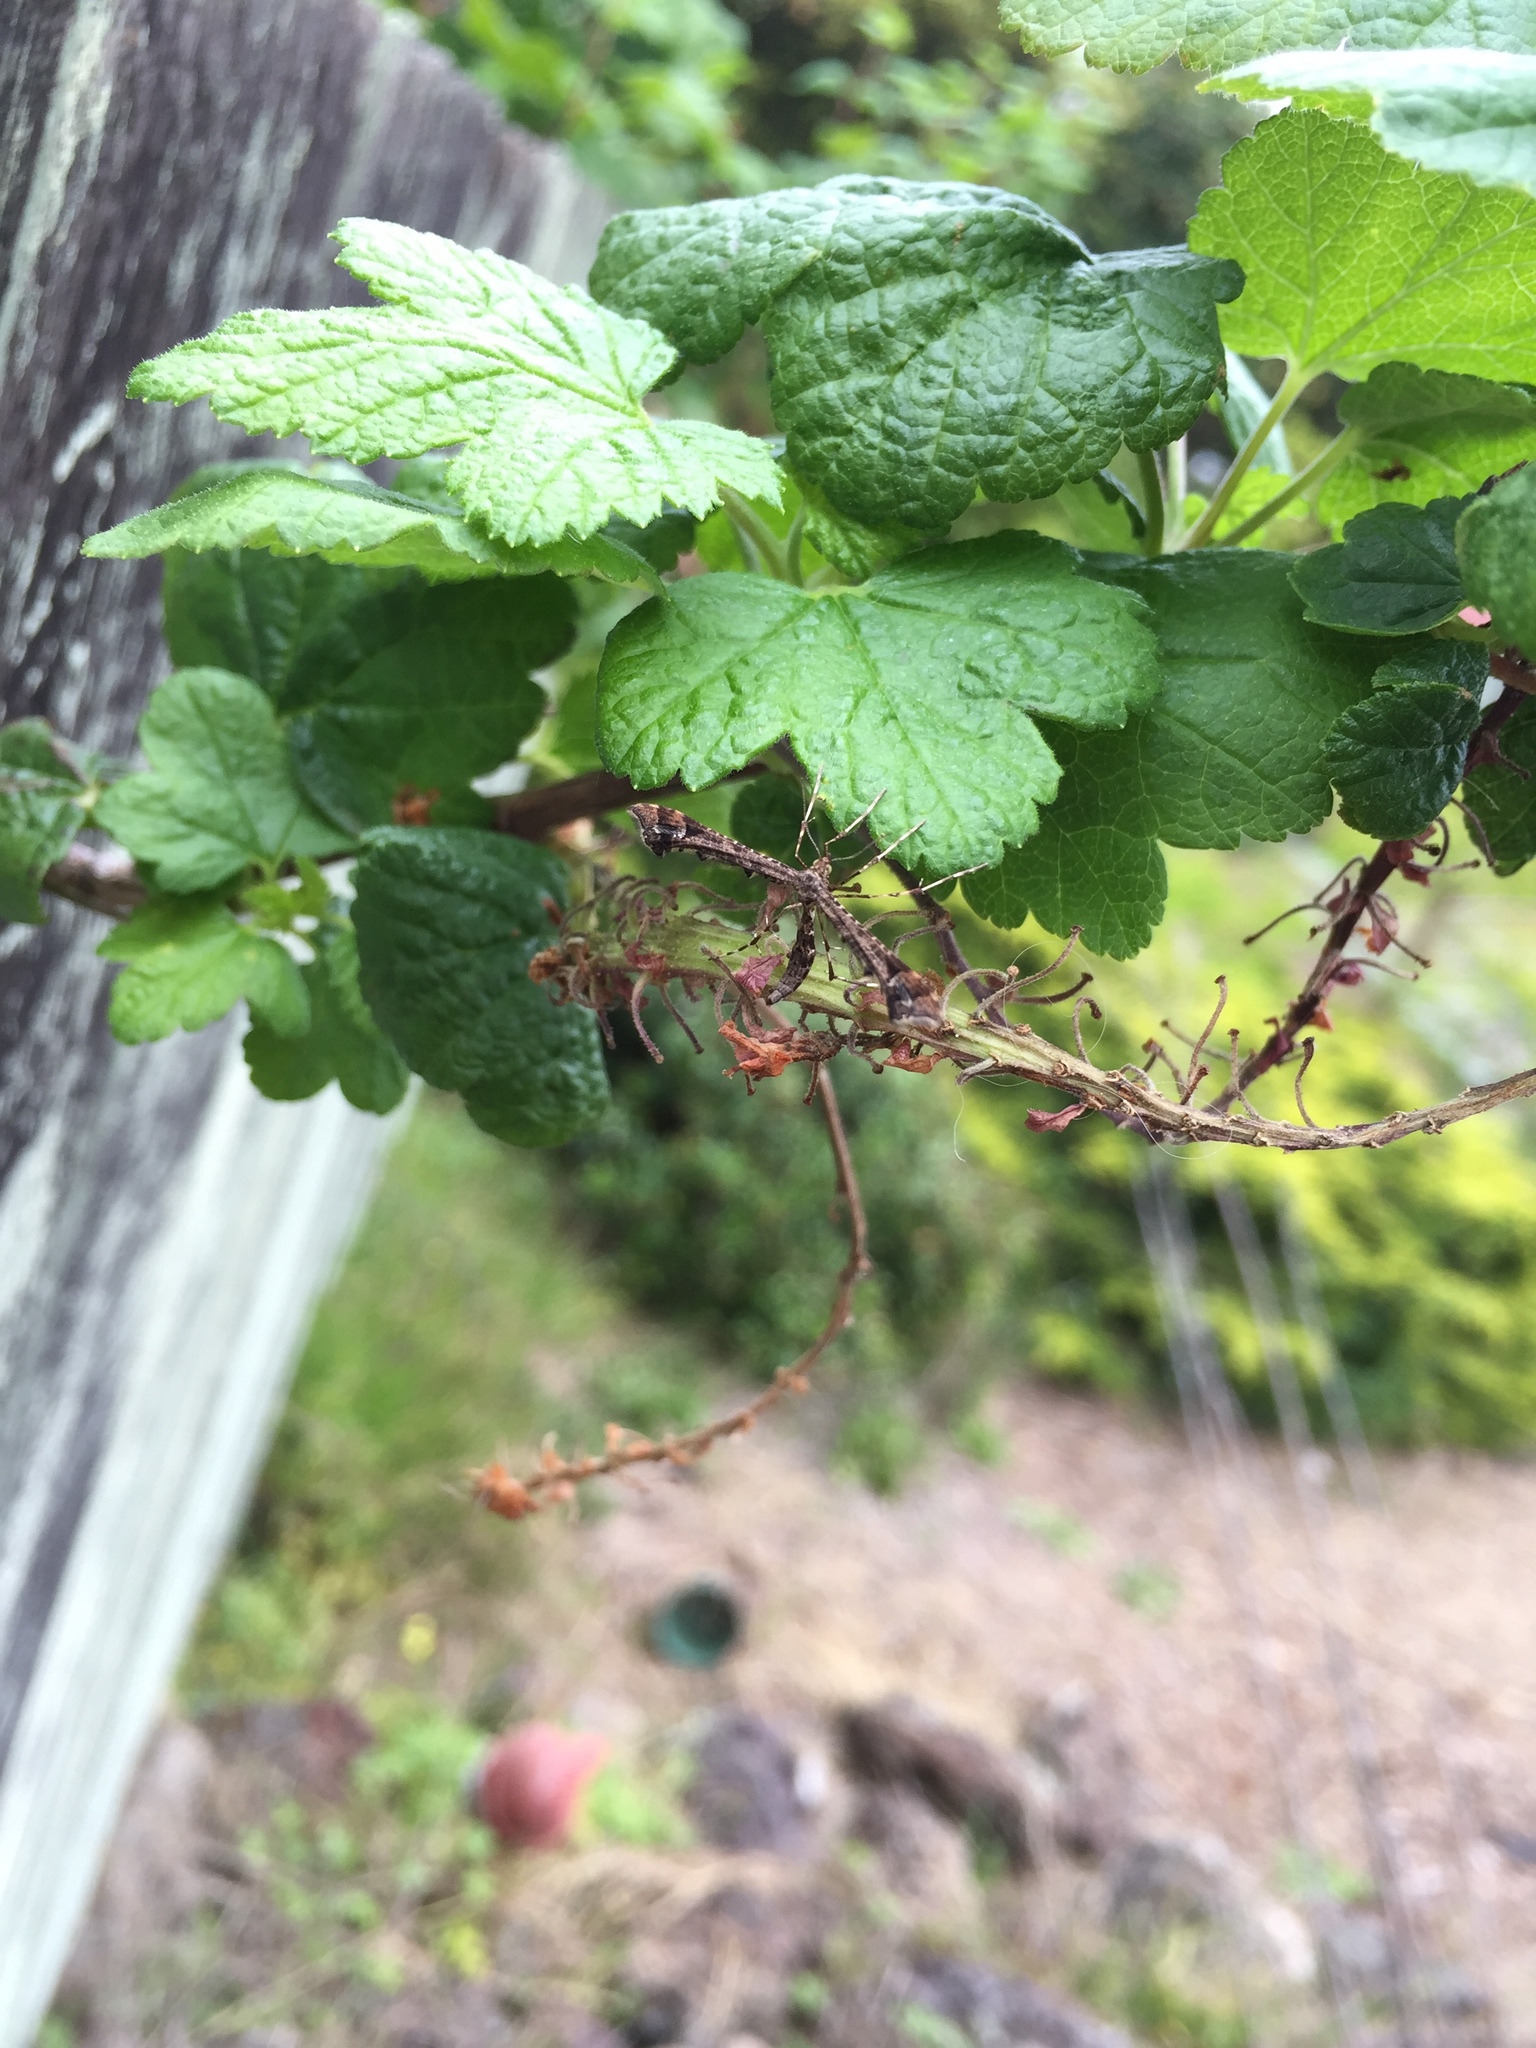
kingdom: Animalia
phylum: Arthropoda
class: Insecta
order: Lepidoptera
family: Pterophoridae
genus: Amblyptilia
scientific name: Amblyptilia pica
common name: Geranium plume moth
